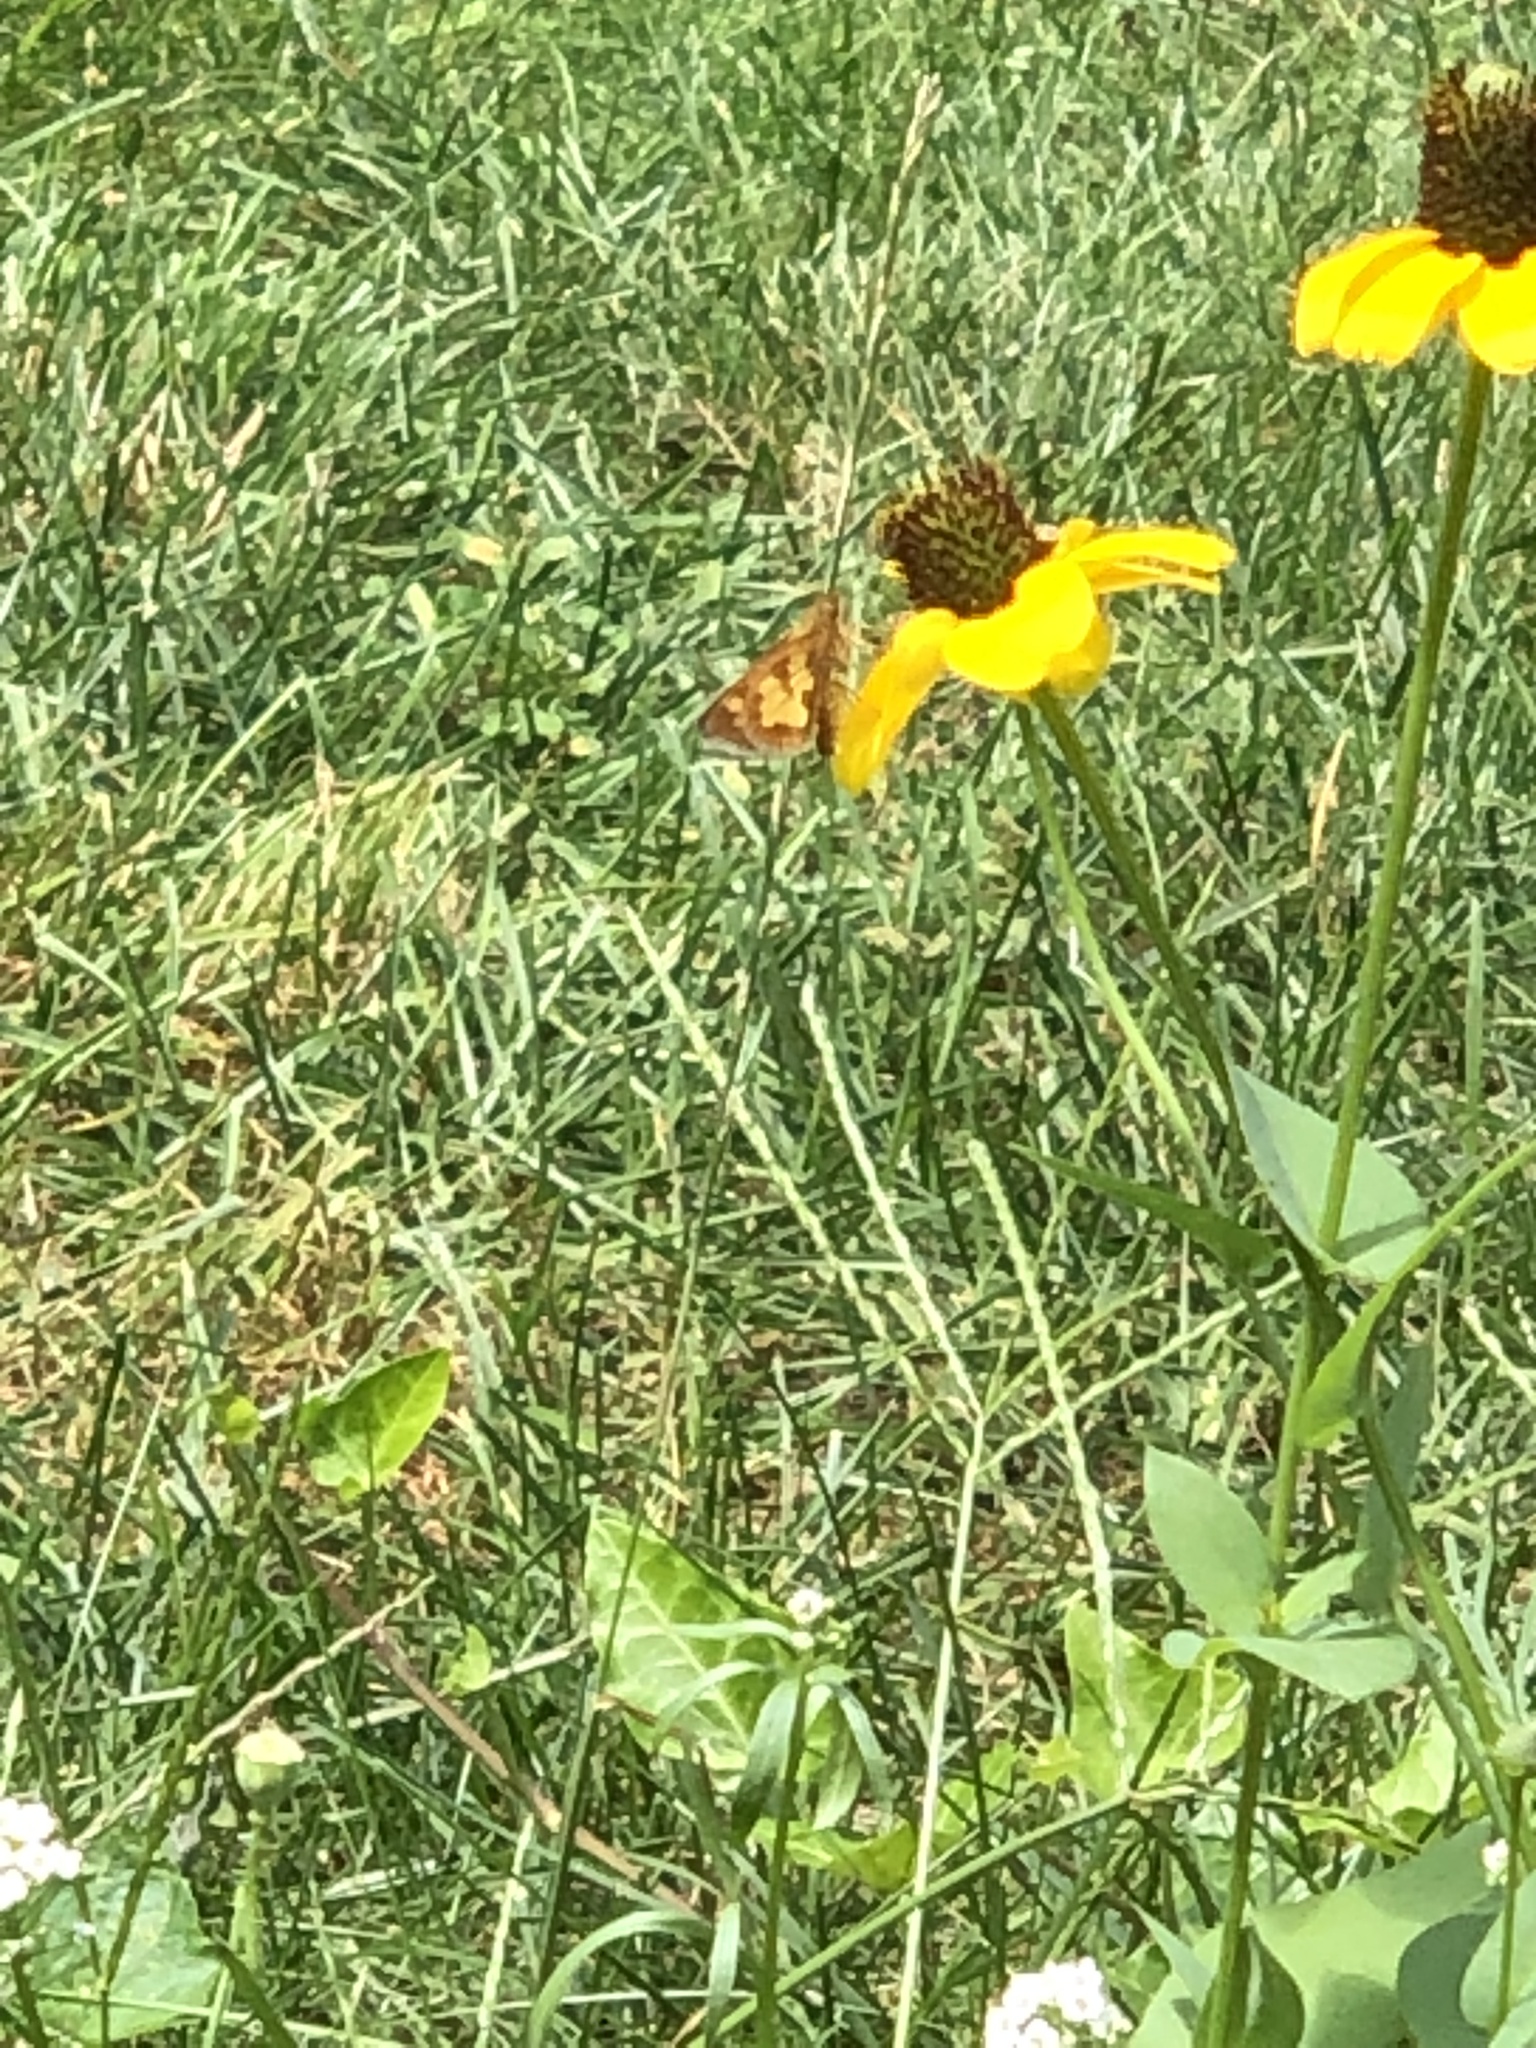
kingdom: Animalia
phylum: Arthropoda
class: Insecta
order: Lepidoptera
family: Hesperiidae
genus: Polites
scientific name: Polites coras
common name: Peck's skipper
